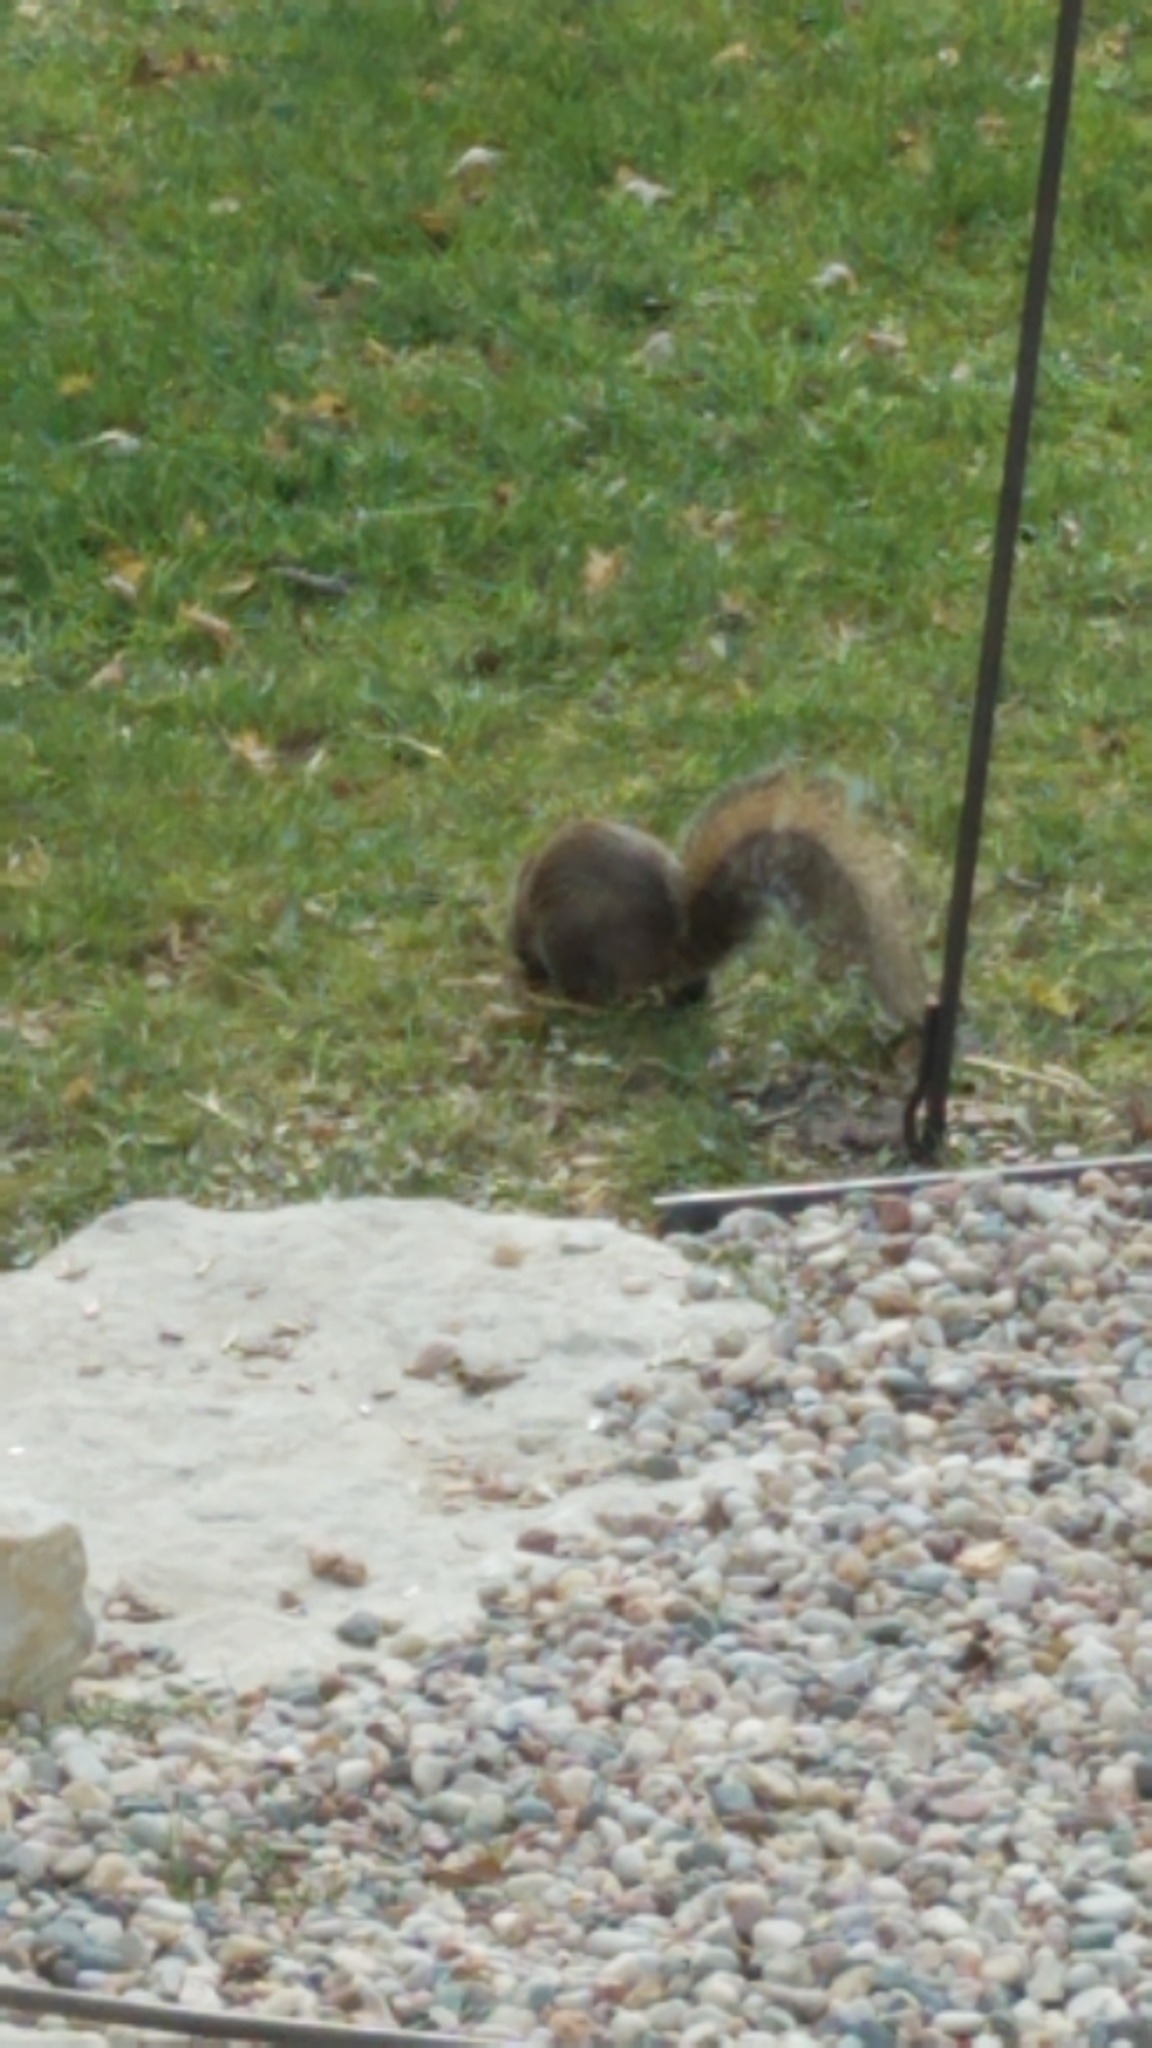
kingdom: Animalia
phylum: Chordata
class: Mammalia
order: Rodentia
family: Sciuridae
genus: Sciurus
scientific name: Sciurus carolinensis
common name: Eastern gray squirrel
